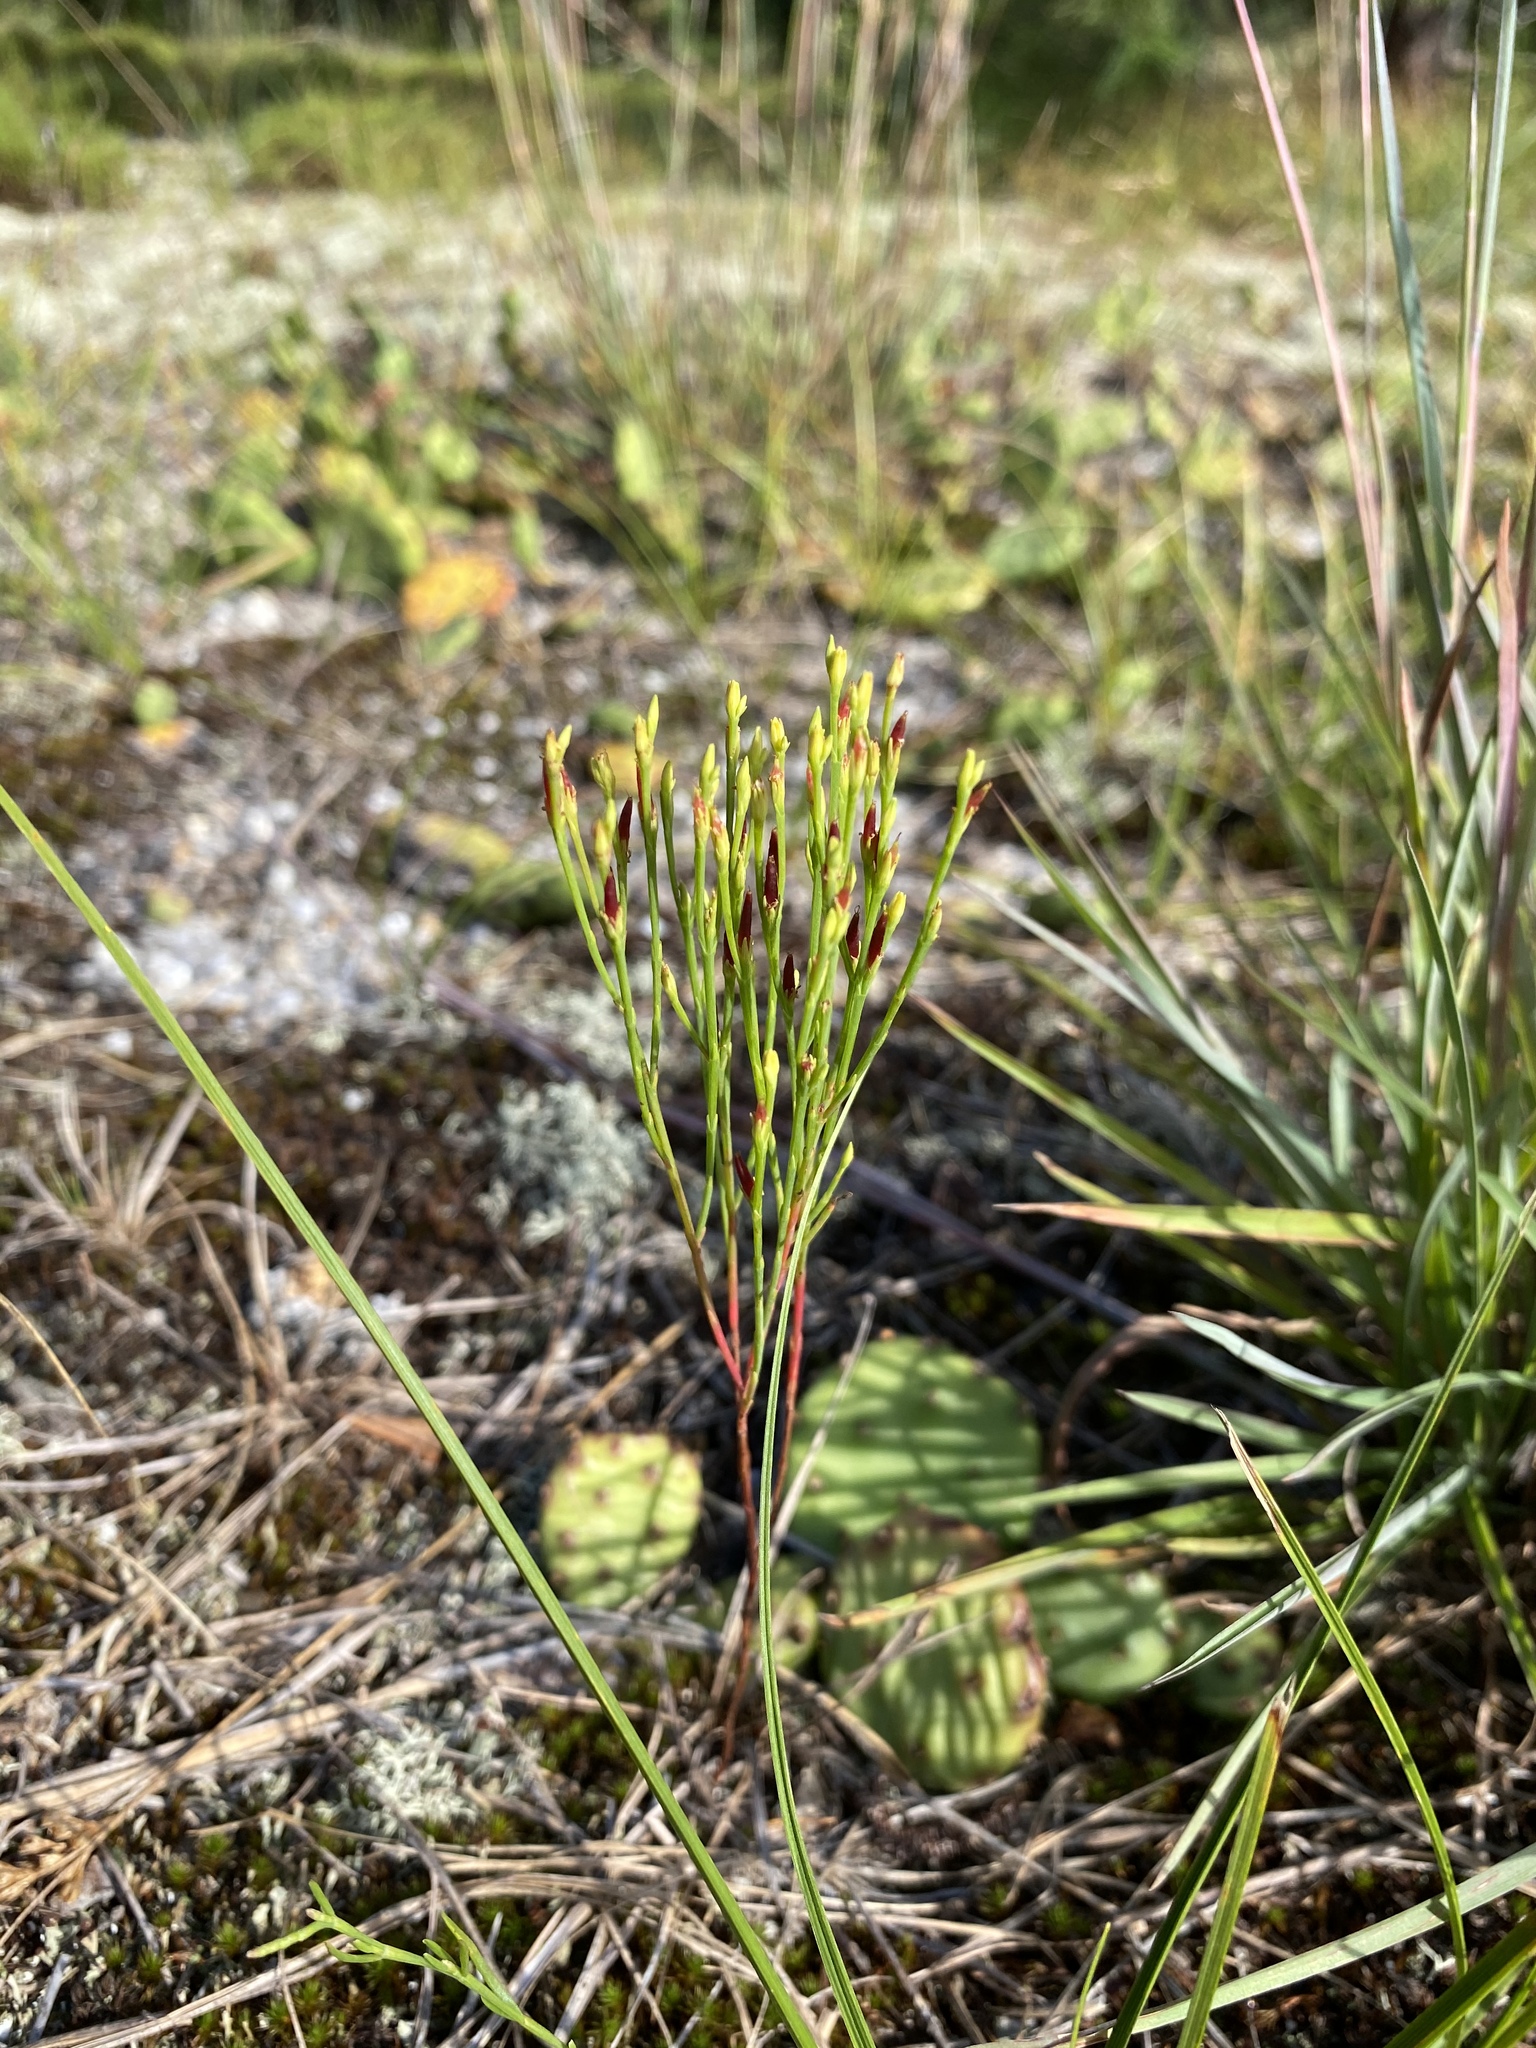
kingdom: Plantae
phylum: Tracheophyta
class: Magnoliopsida
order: Malpighiales
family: Hypericaceae
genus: Hypericum
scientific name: Hypericum gentianoides
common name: Gentian-leaved st. john's-wort
